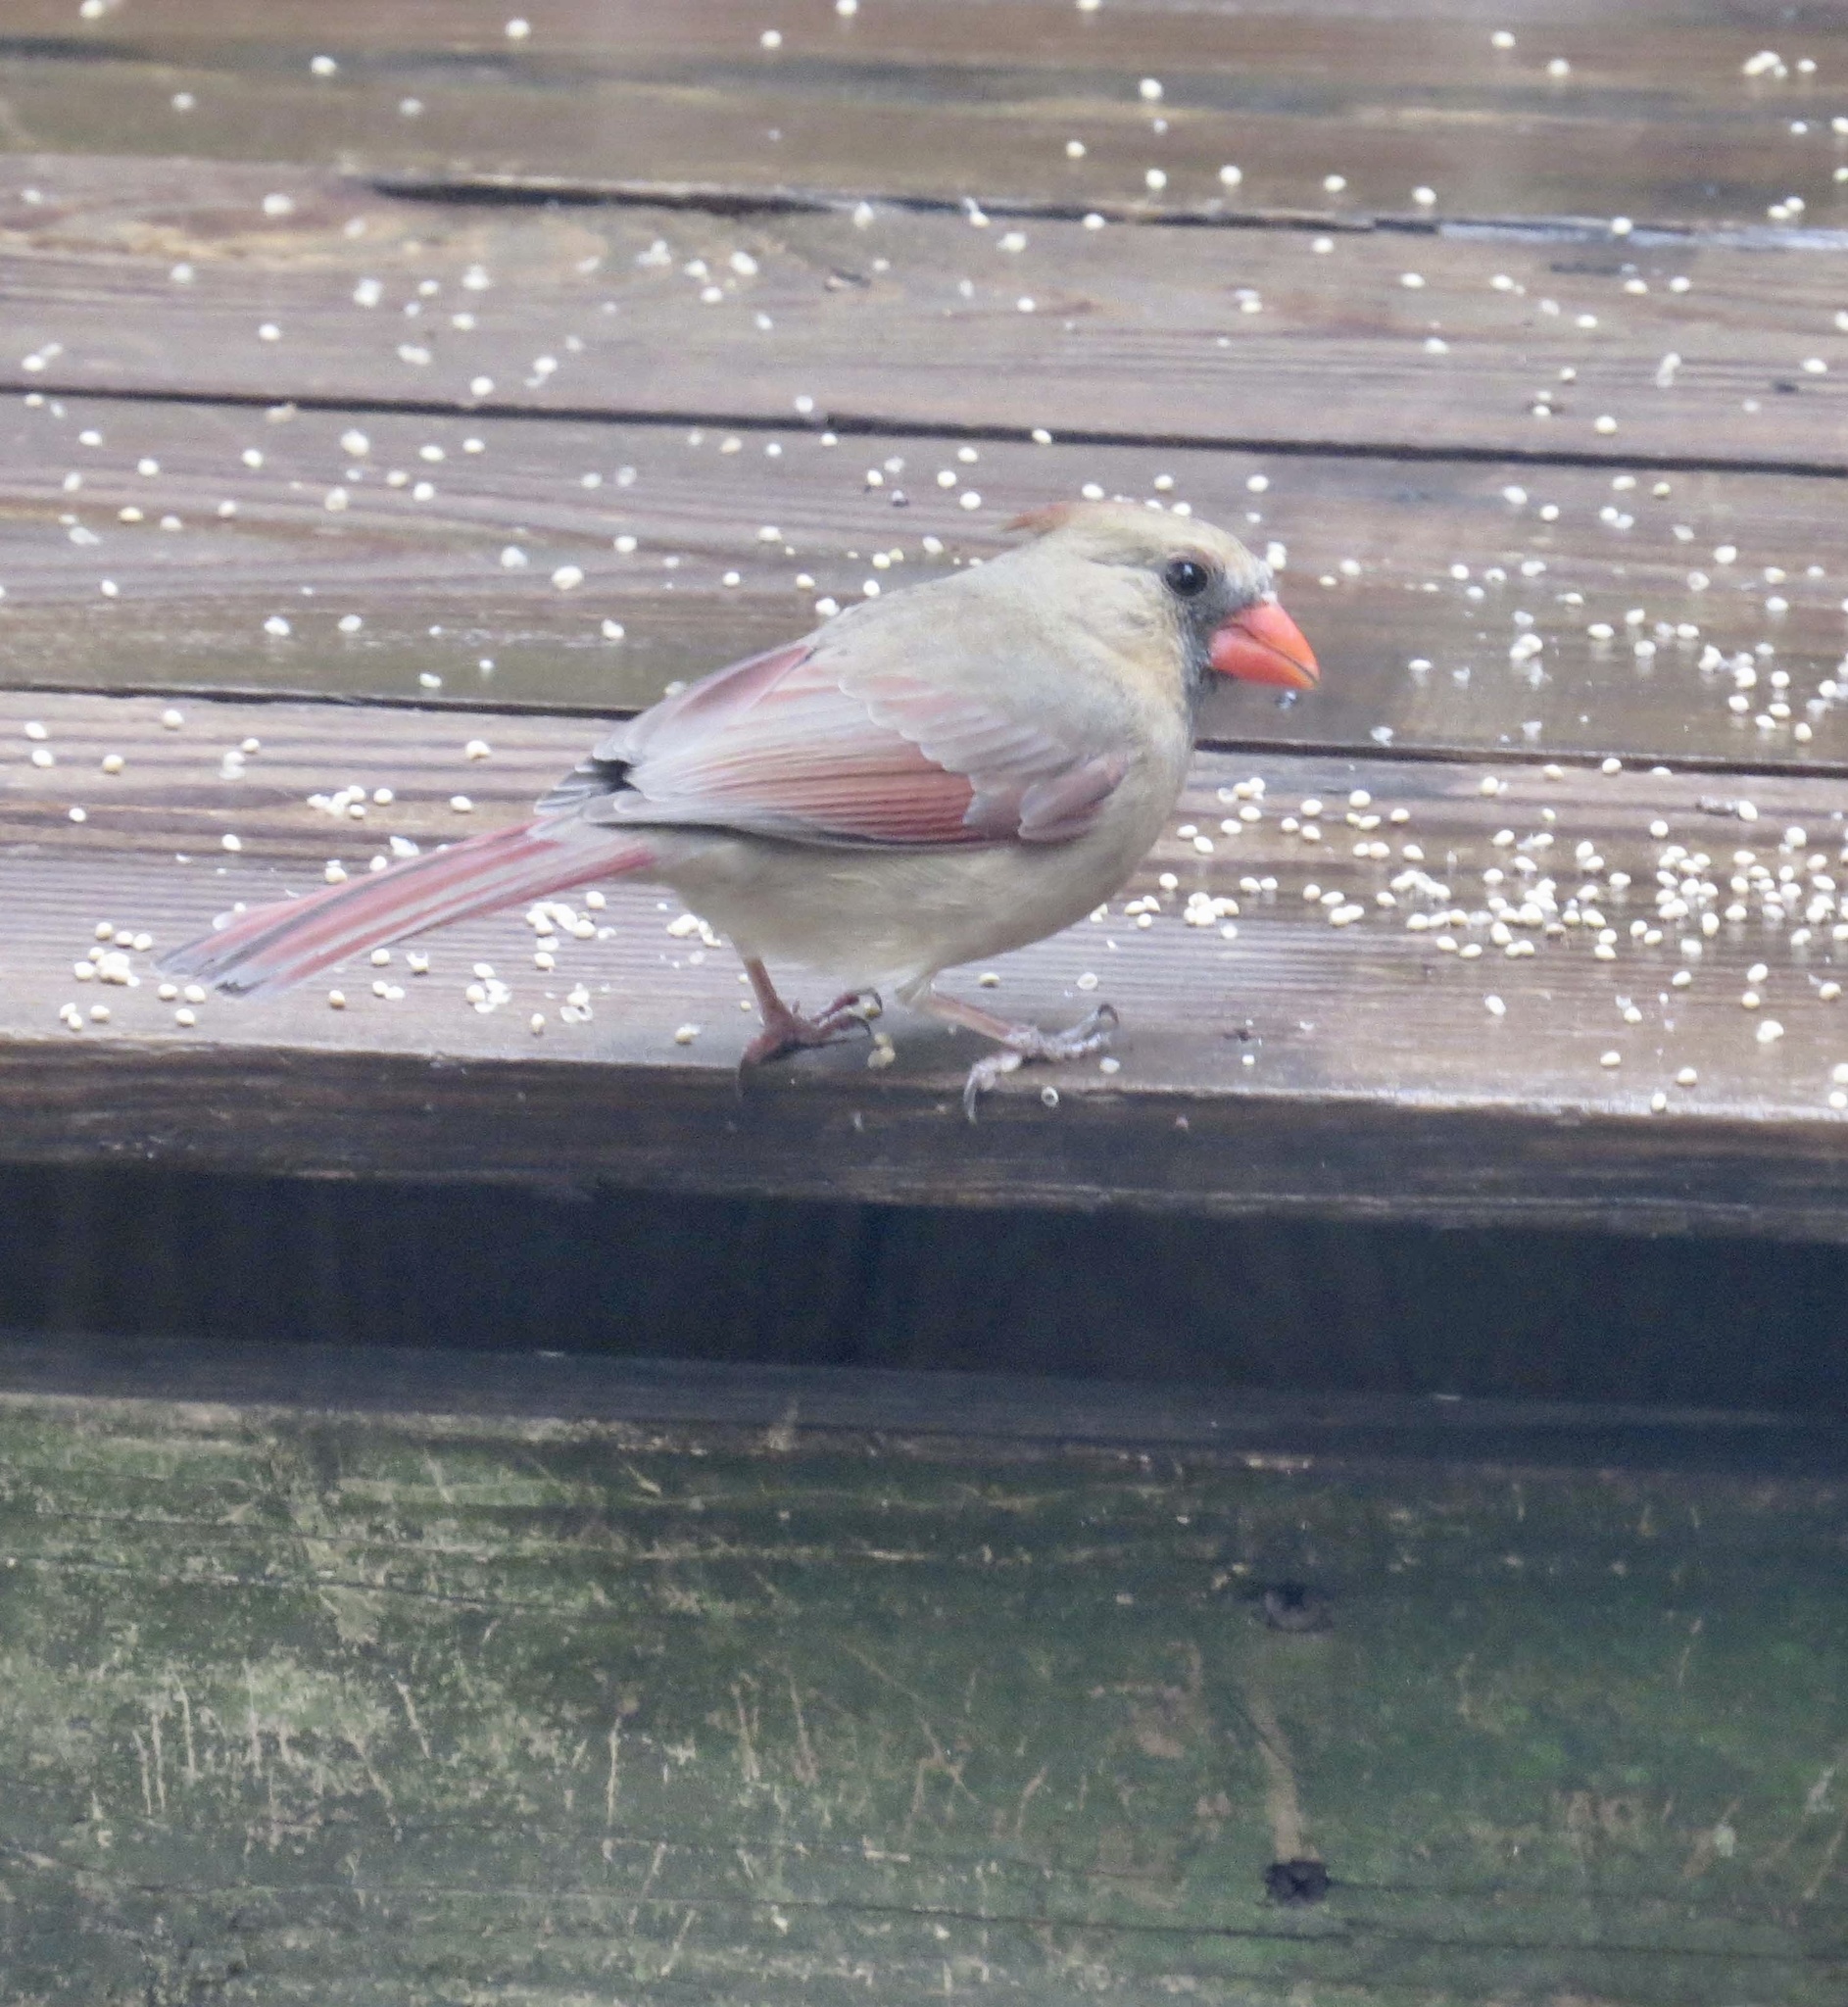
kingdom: Animalia
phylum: Chordata
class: Aves
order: Passeriformes
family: Cardinalidae
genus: Cardinalis
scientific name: Cardinalis cardinalis
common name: Northern cardinal
